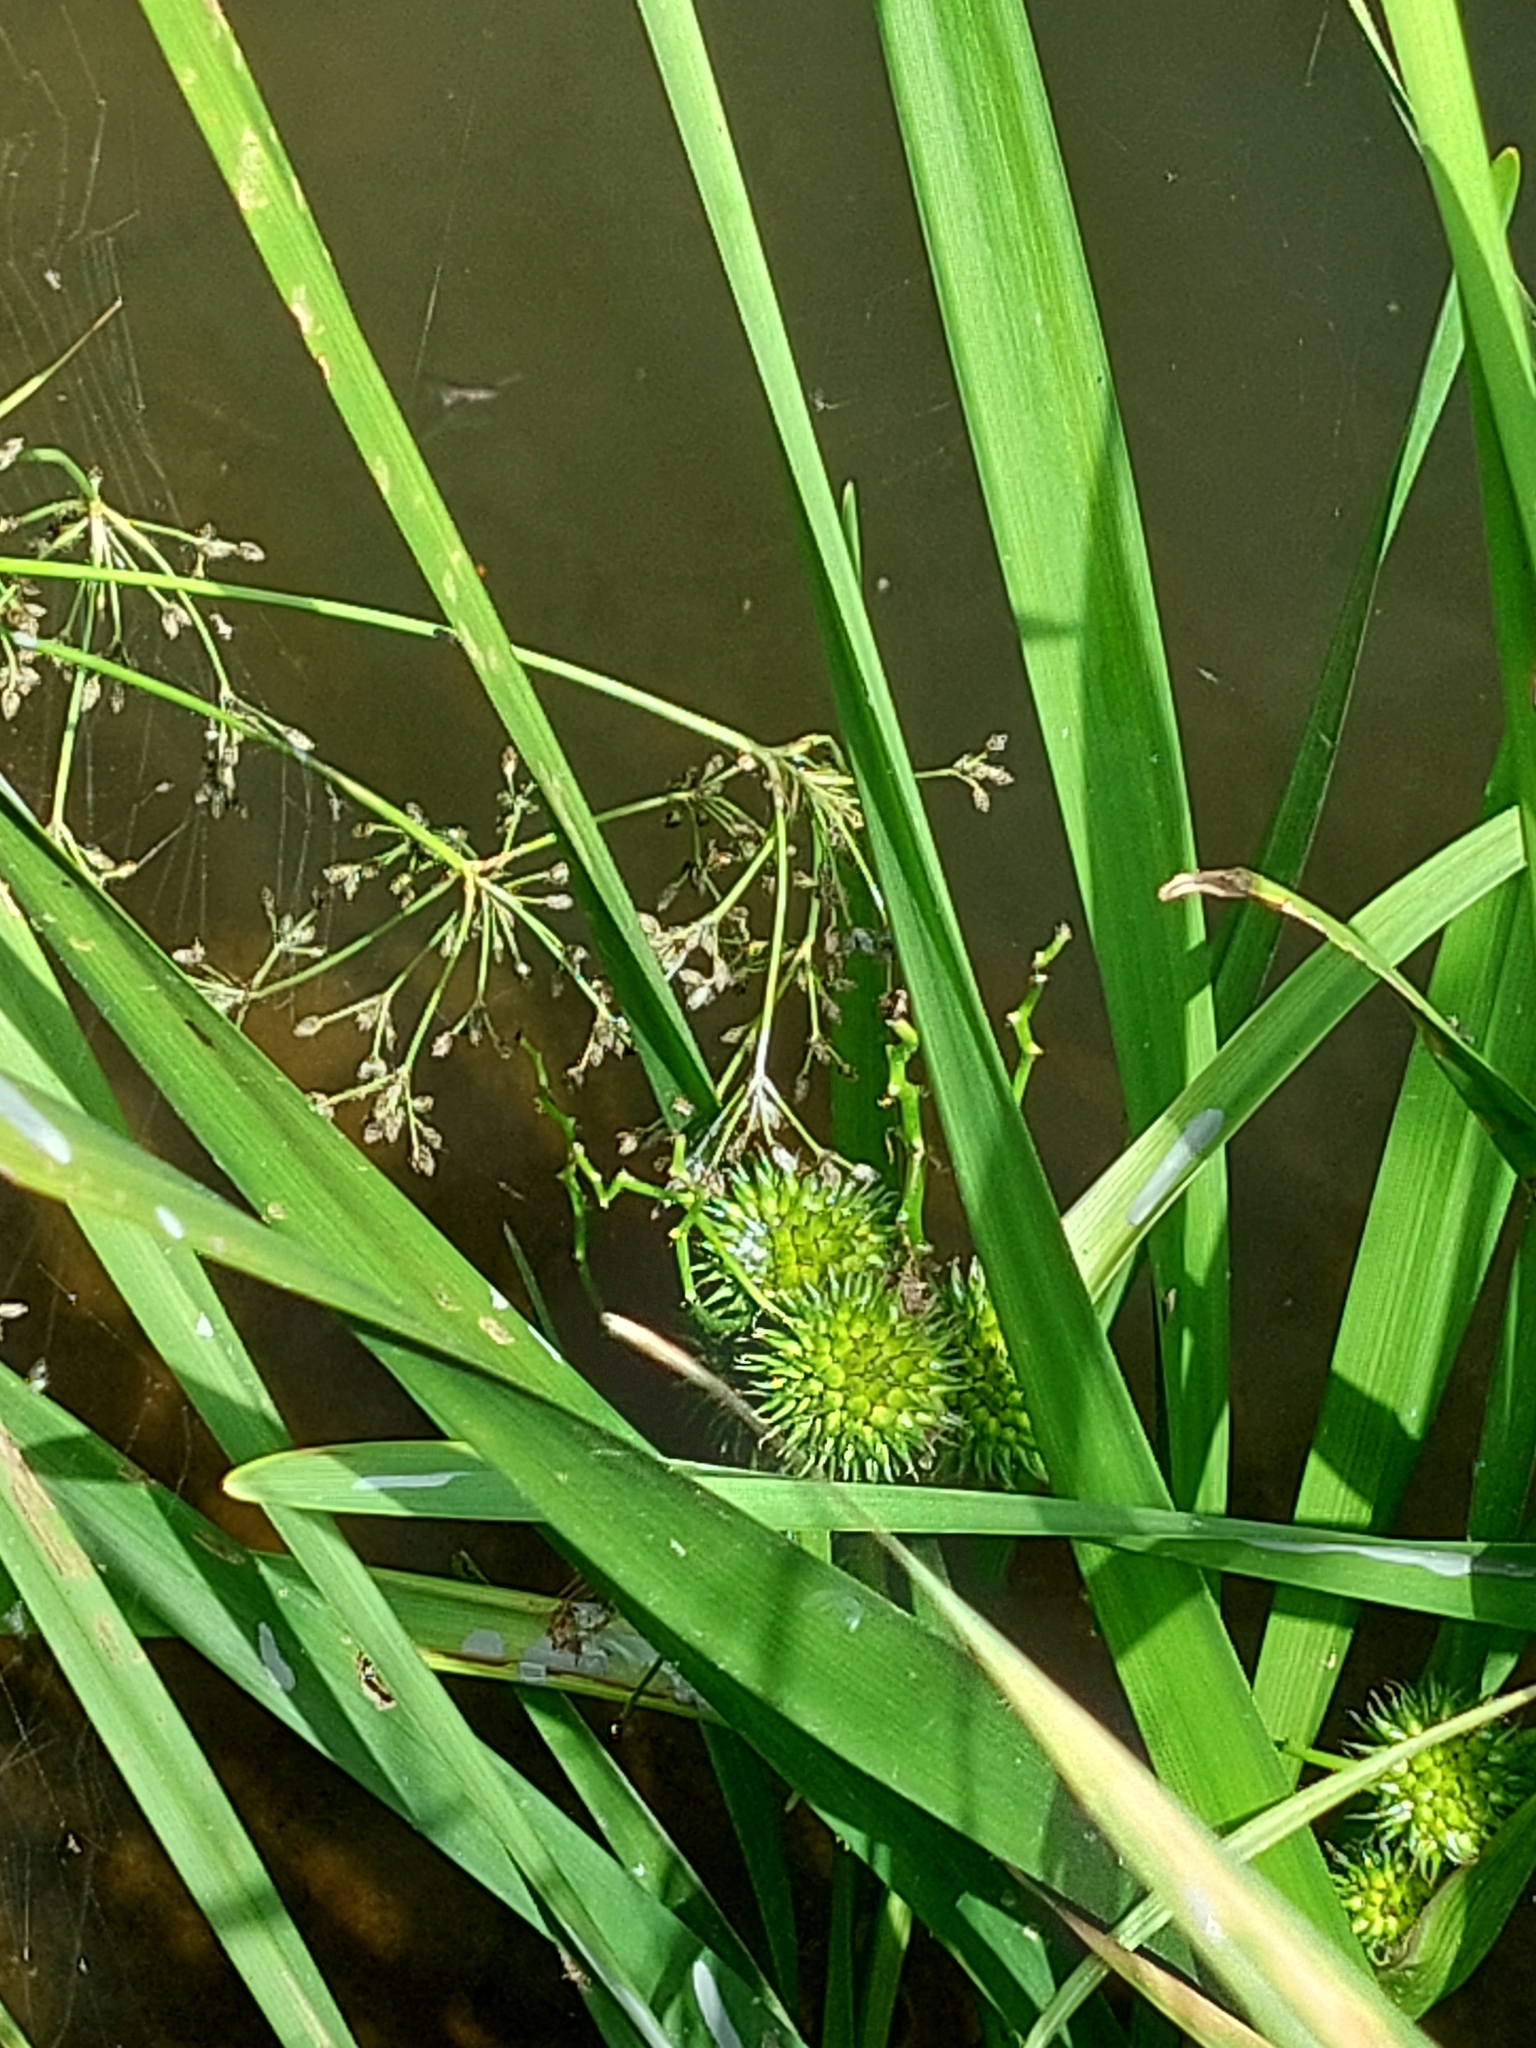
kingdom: Plantae
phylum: Tracheophyta
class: Liliopsida
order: Poales
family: Typhaceae
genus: Sparganium
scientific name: Sparganium erectum
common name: Branched bur-reed
